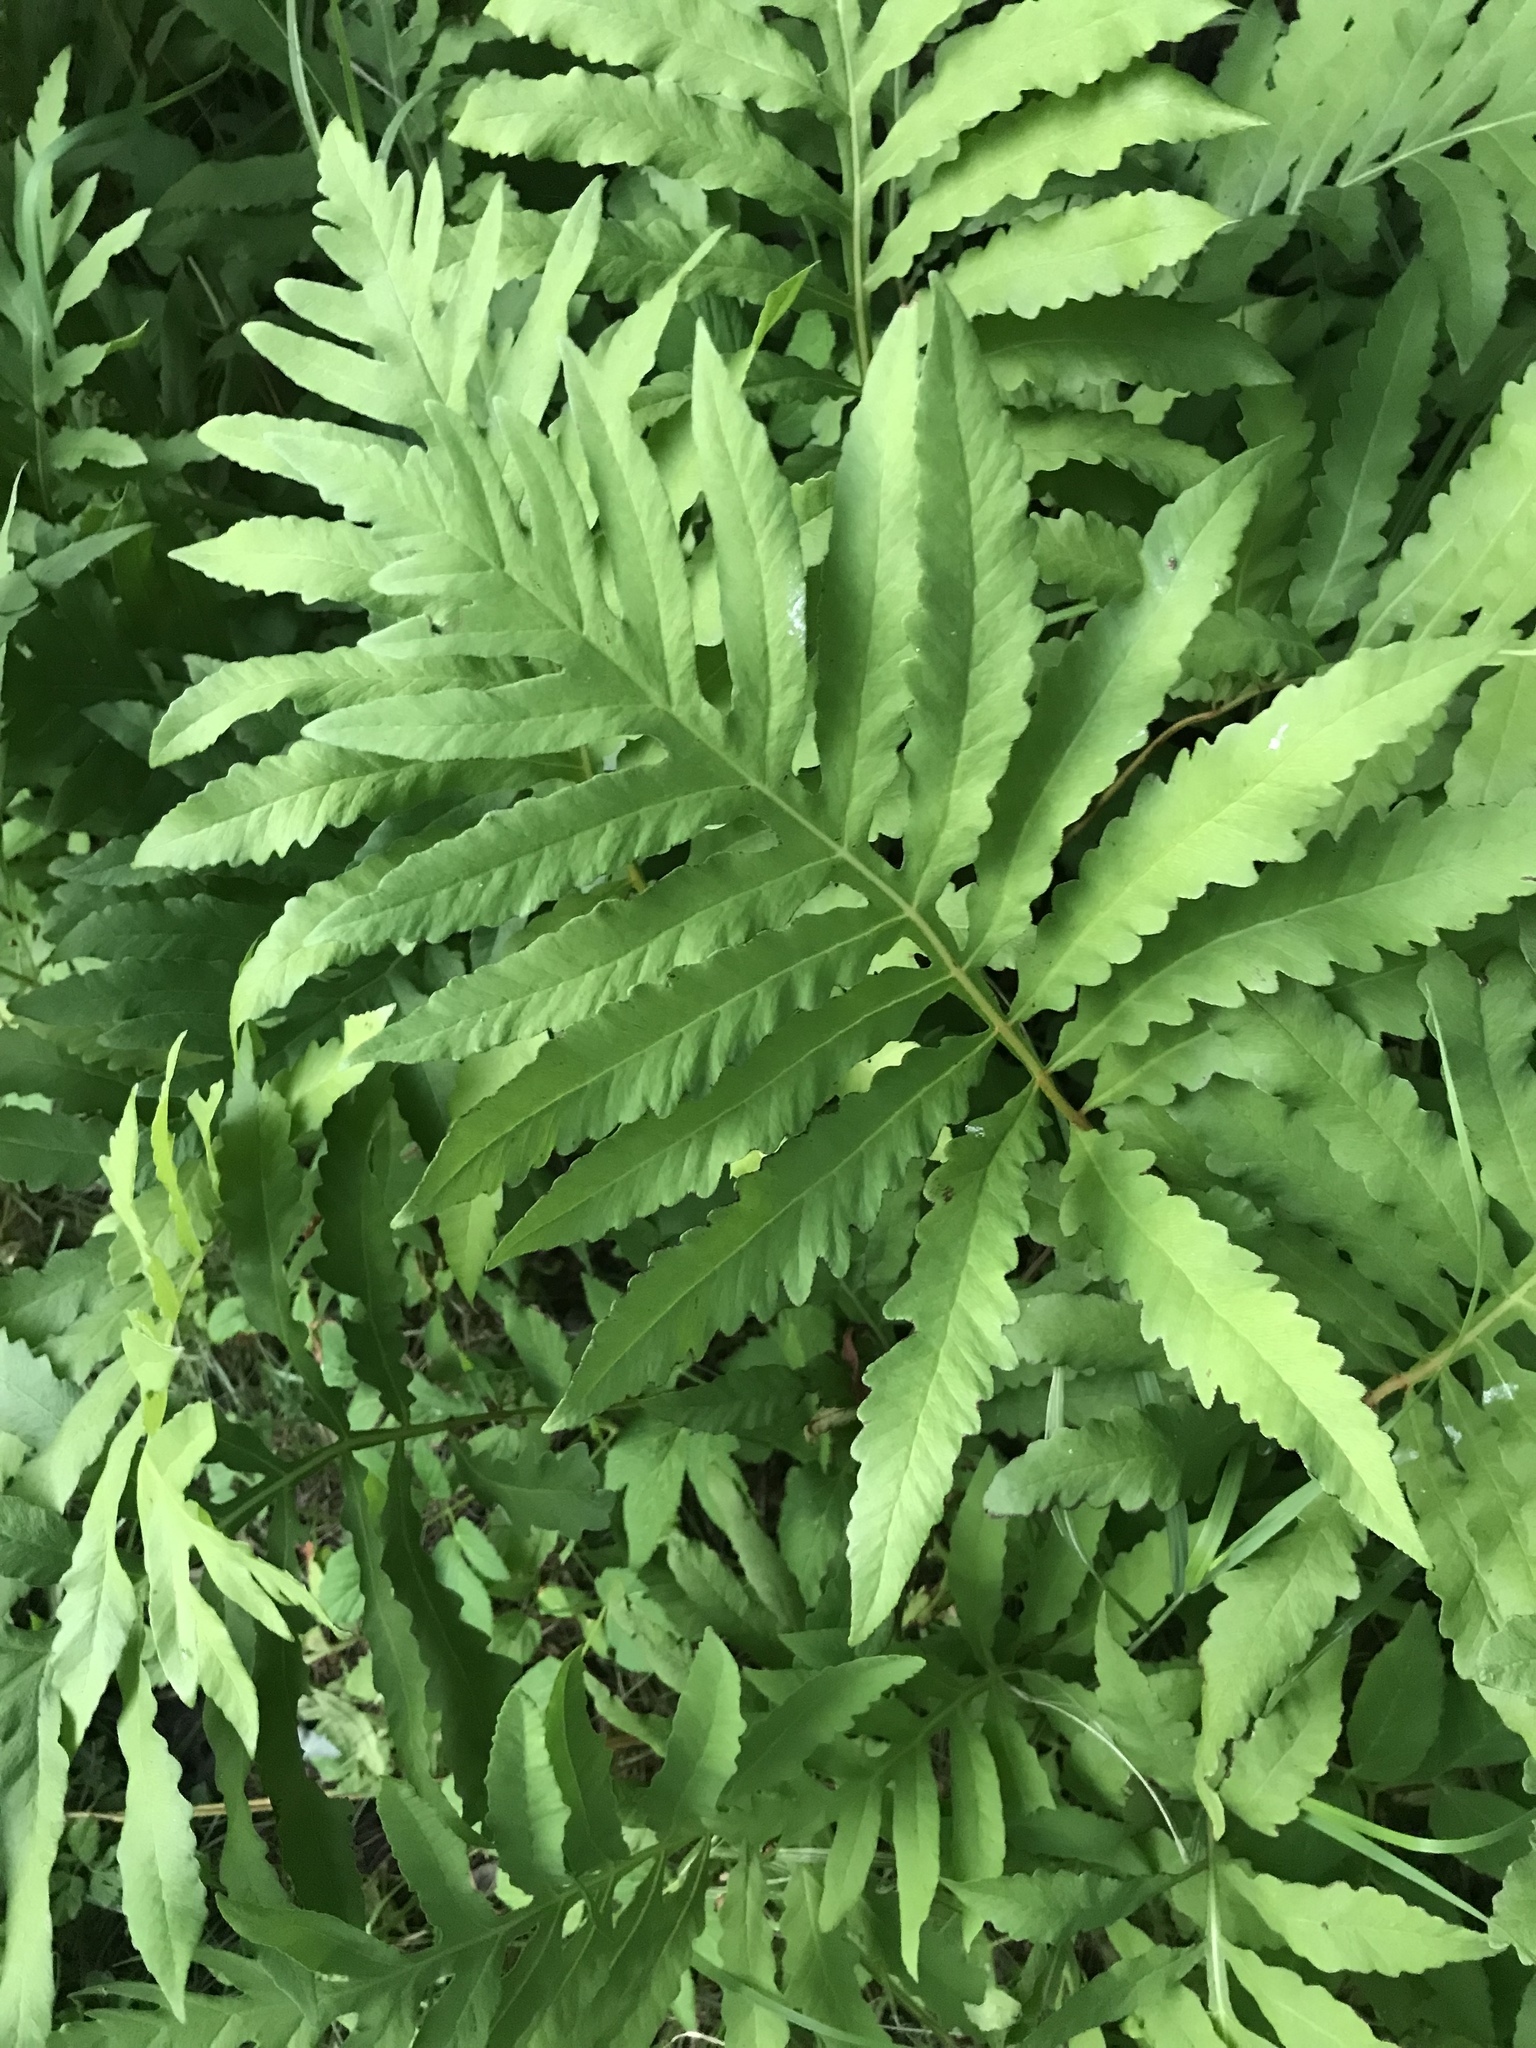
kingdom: Plantae
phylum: Tracheophyta
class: Polypodiopsida
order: Polypodiales
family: Onocleaceae
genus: Onoclea
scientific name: Onoclea sensibilis
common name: Sensitive fern
